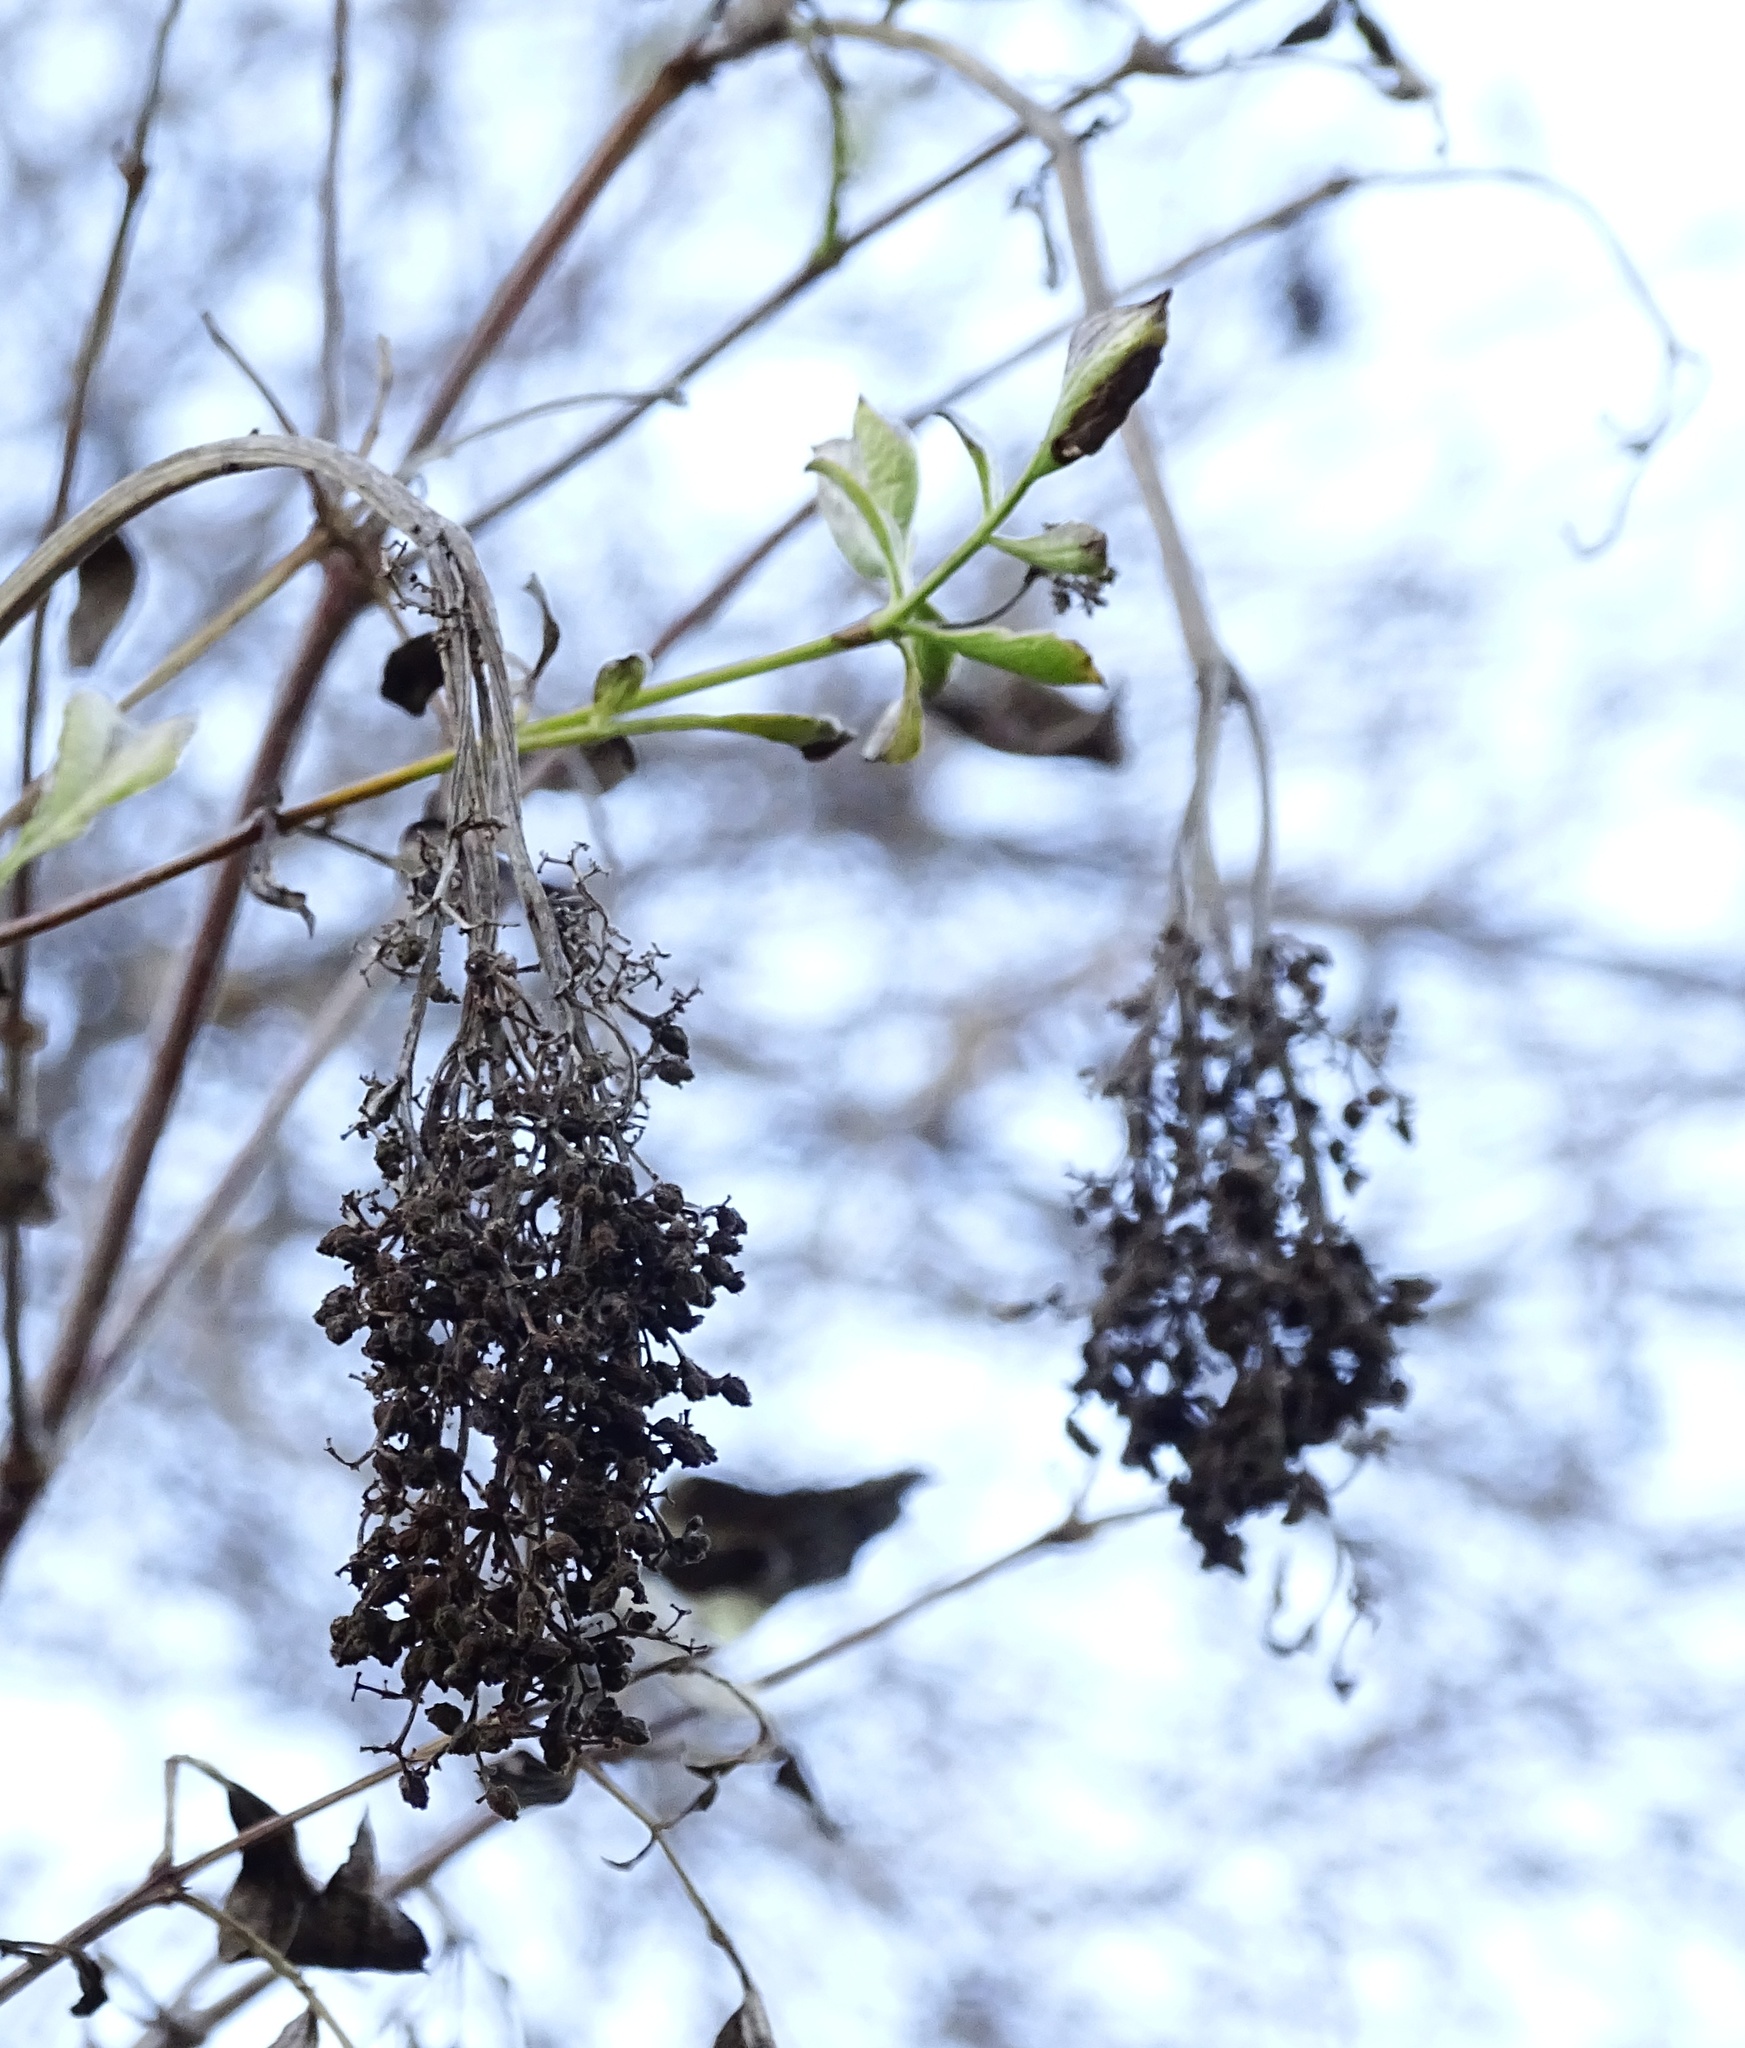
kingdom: Plantae
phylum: Tracheophyta
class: Magnoliopsida
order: Dipsacales
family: Viburnaceae
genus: Sambucus
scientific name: Sambucus cerulea
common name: Blue elder
